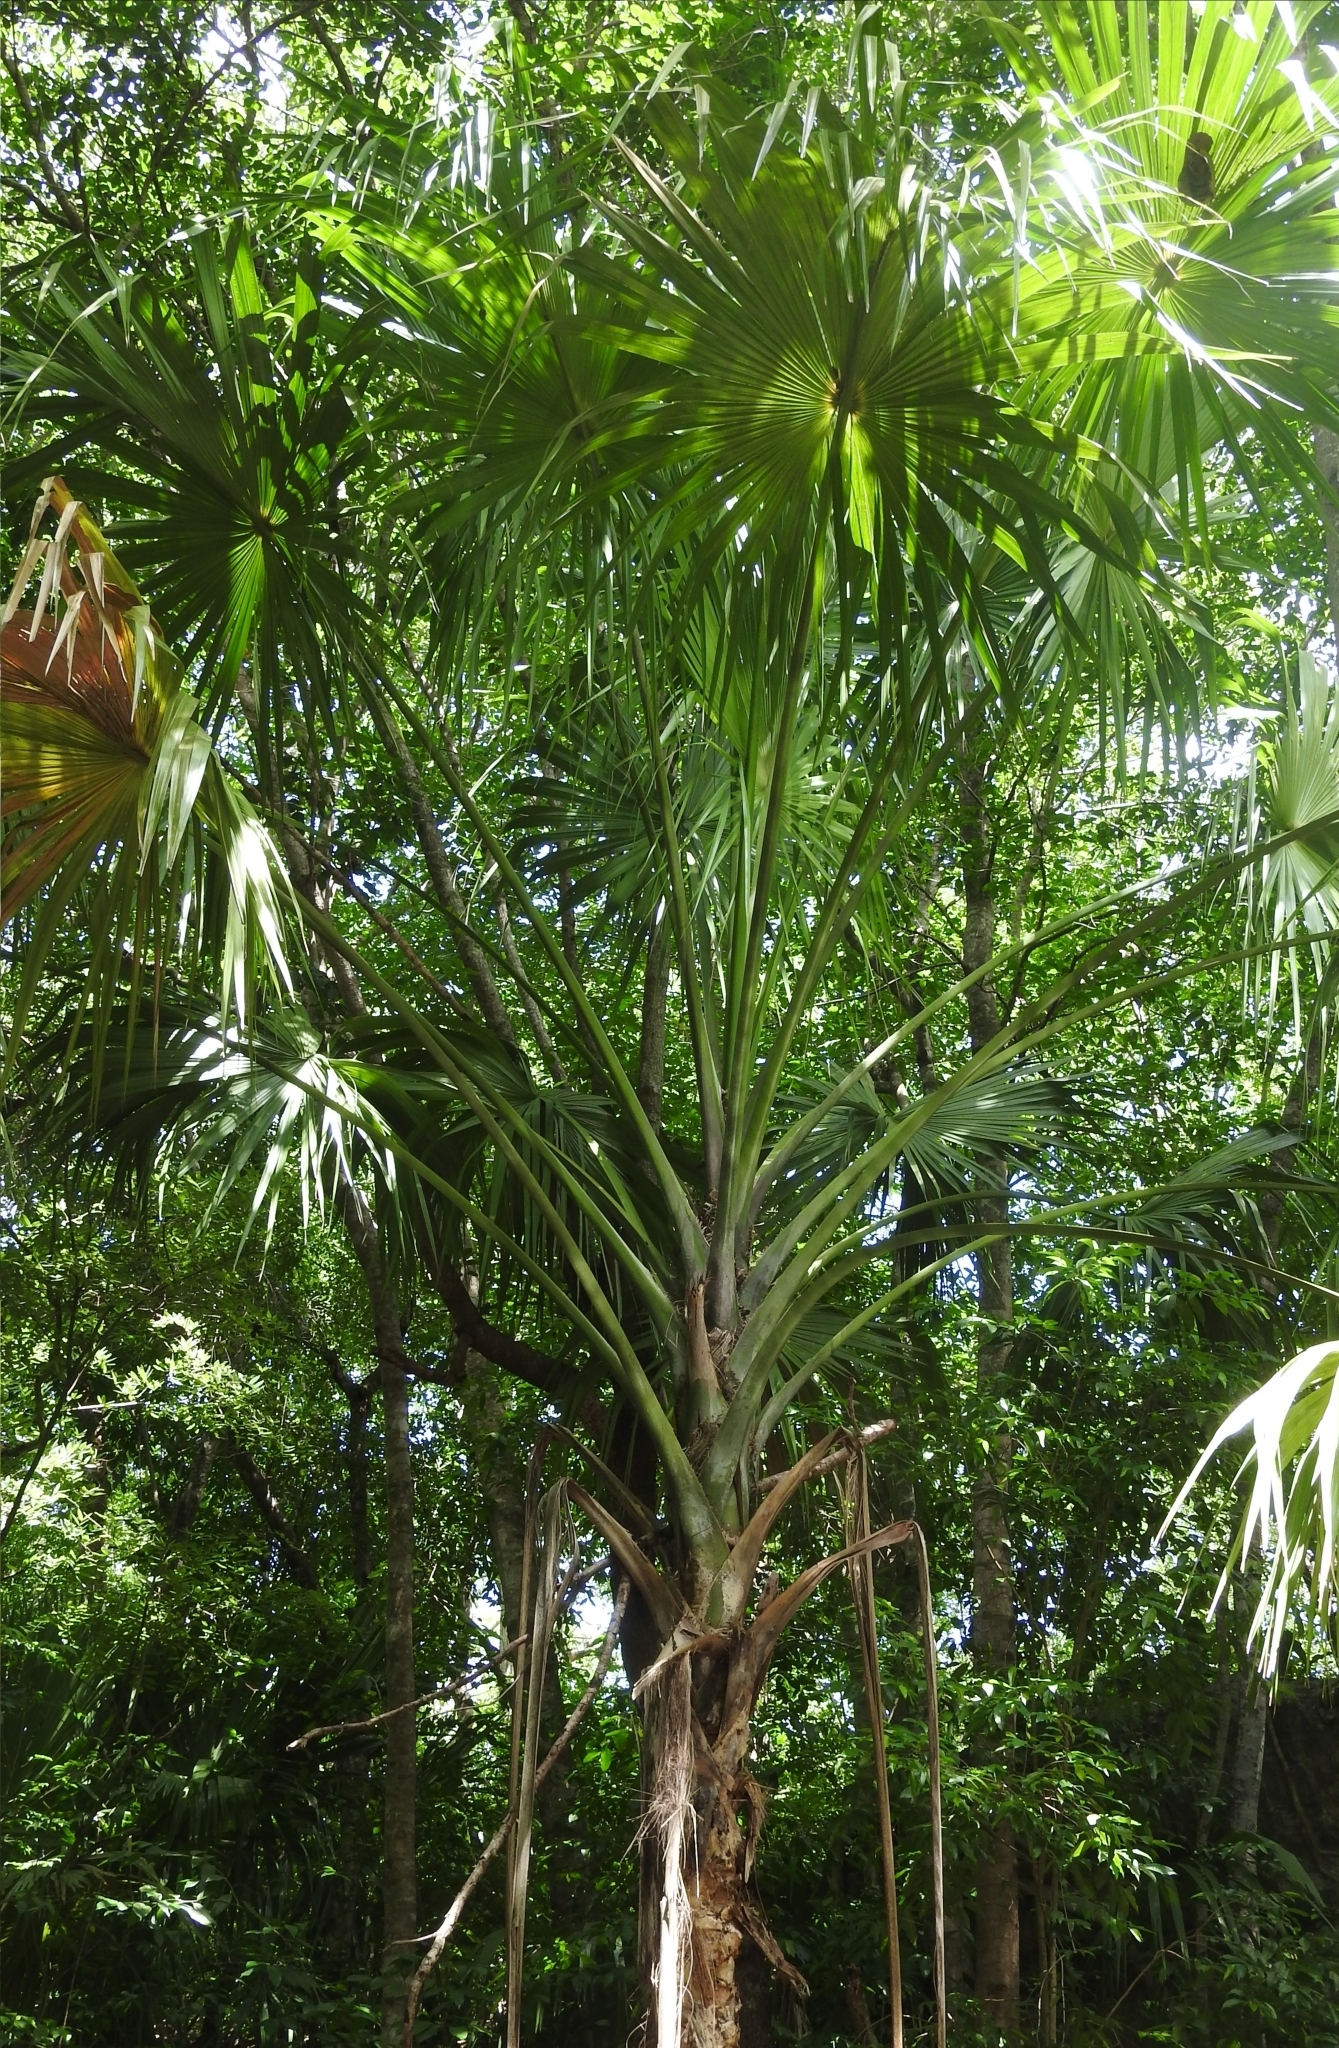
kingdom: Plantae
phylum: Tracheophyta
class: Liliopsida
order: Arecales
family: Arecaceae
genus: Thrinax
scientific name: Thrinax radiata
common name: Florida thatch
